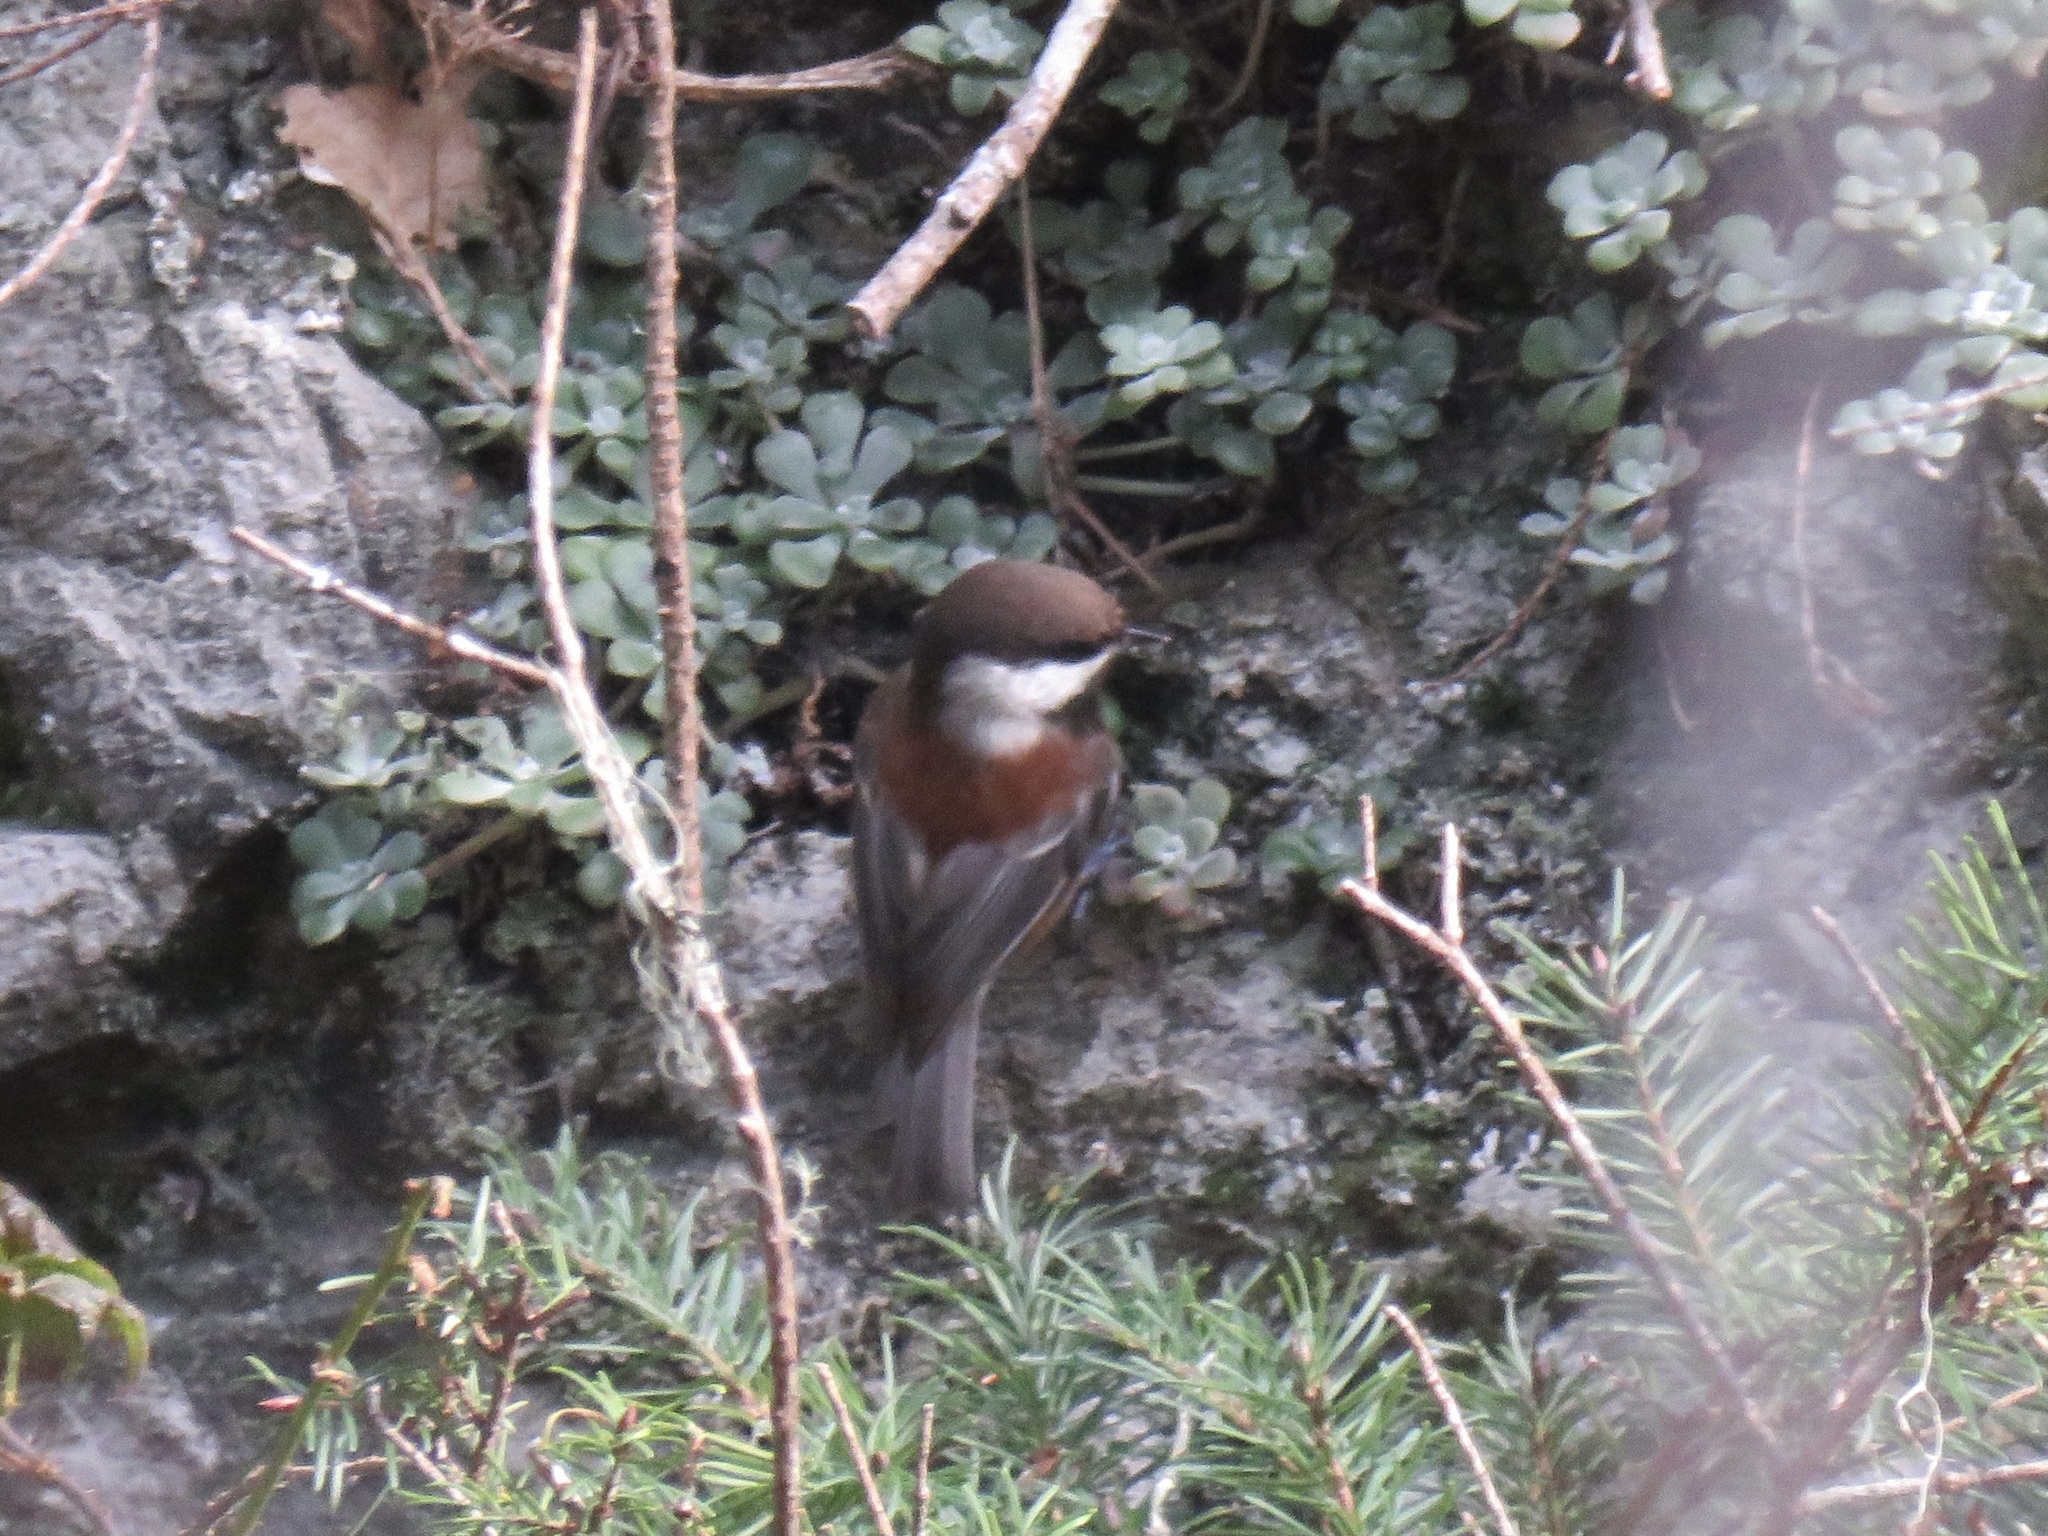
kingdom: Animalia
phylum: Chordata
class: Aves
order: Passeriformes
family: Paridae
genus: Poecile
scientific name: Poecile rufescens
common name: Chestnut-backed chickadee
